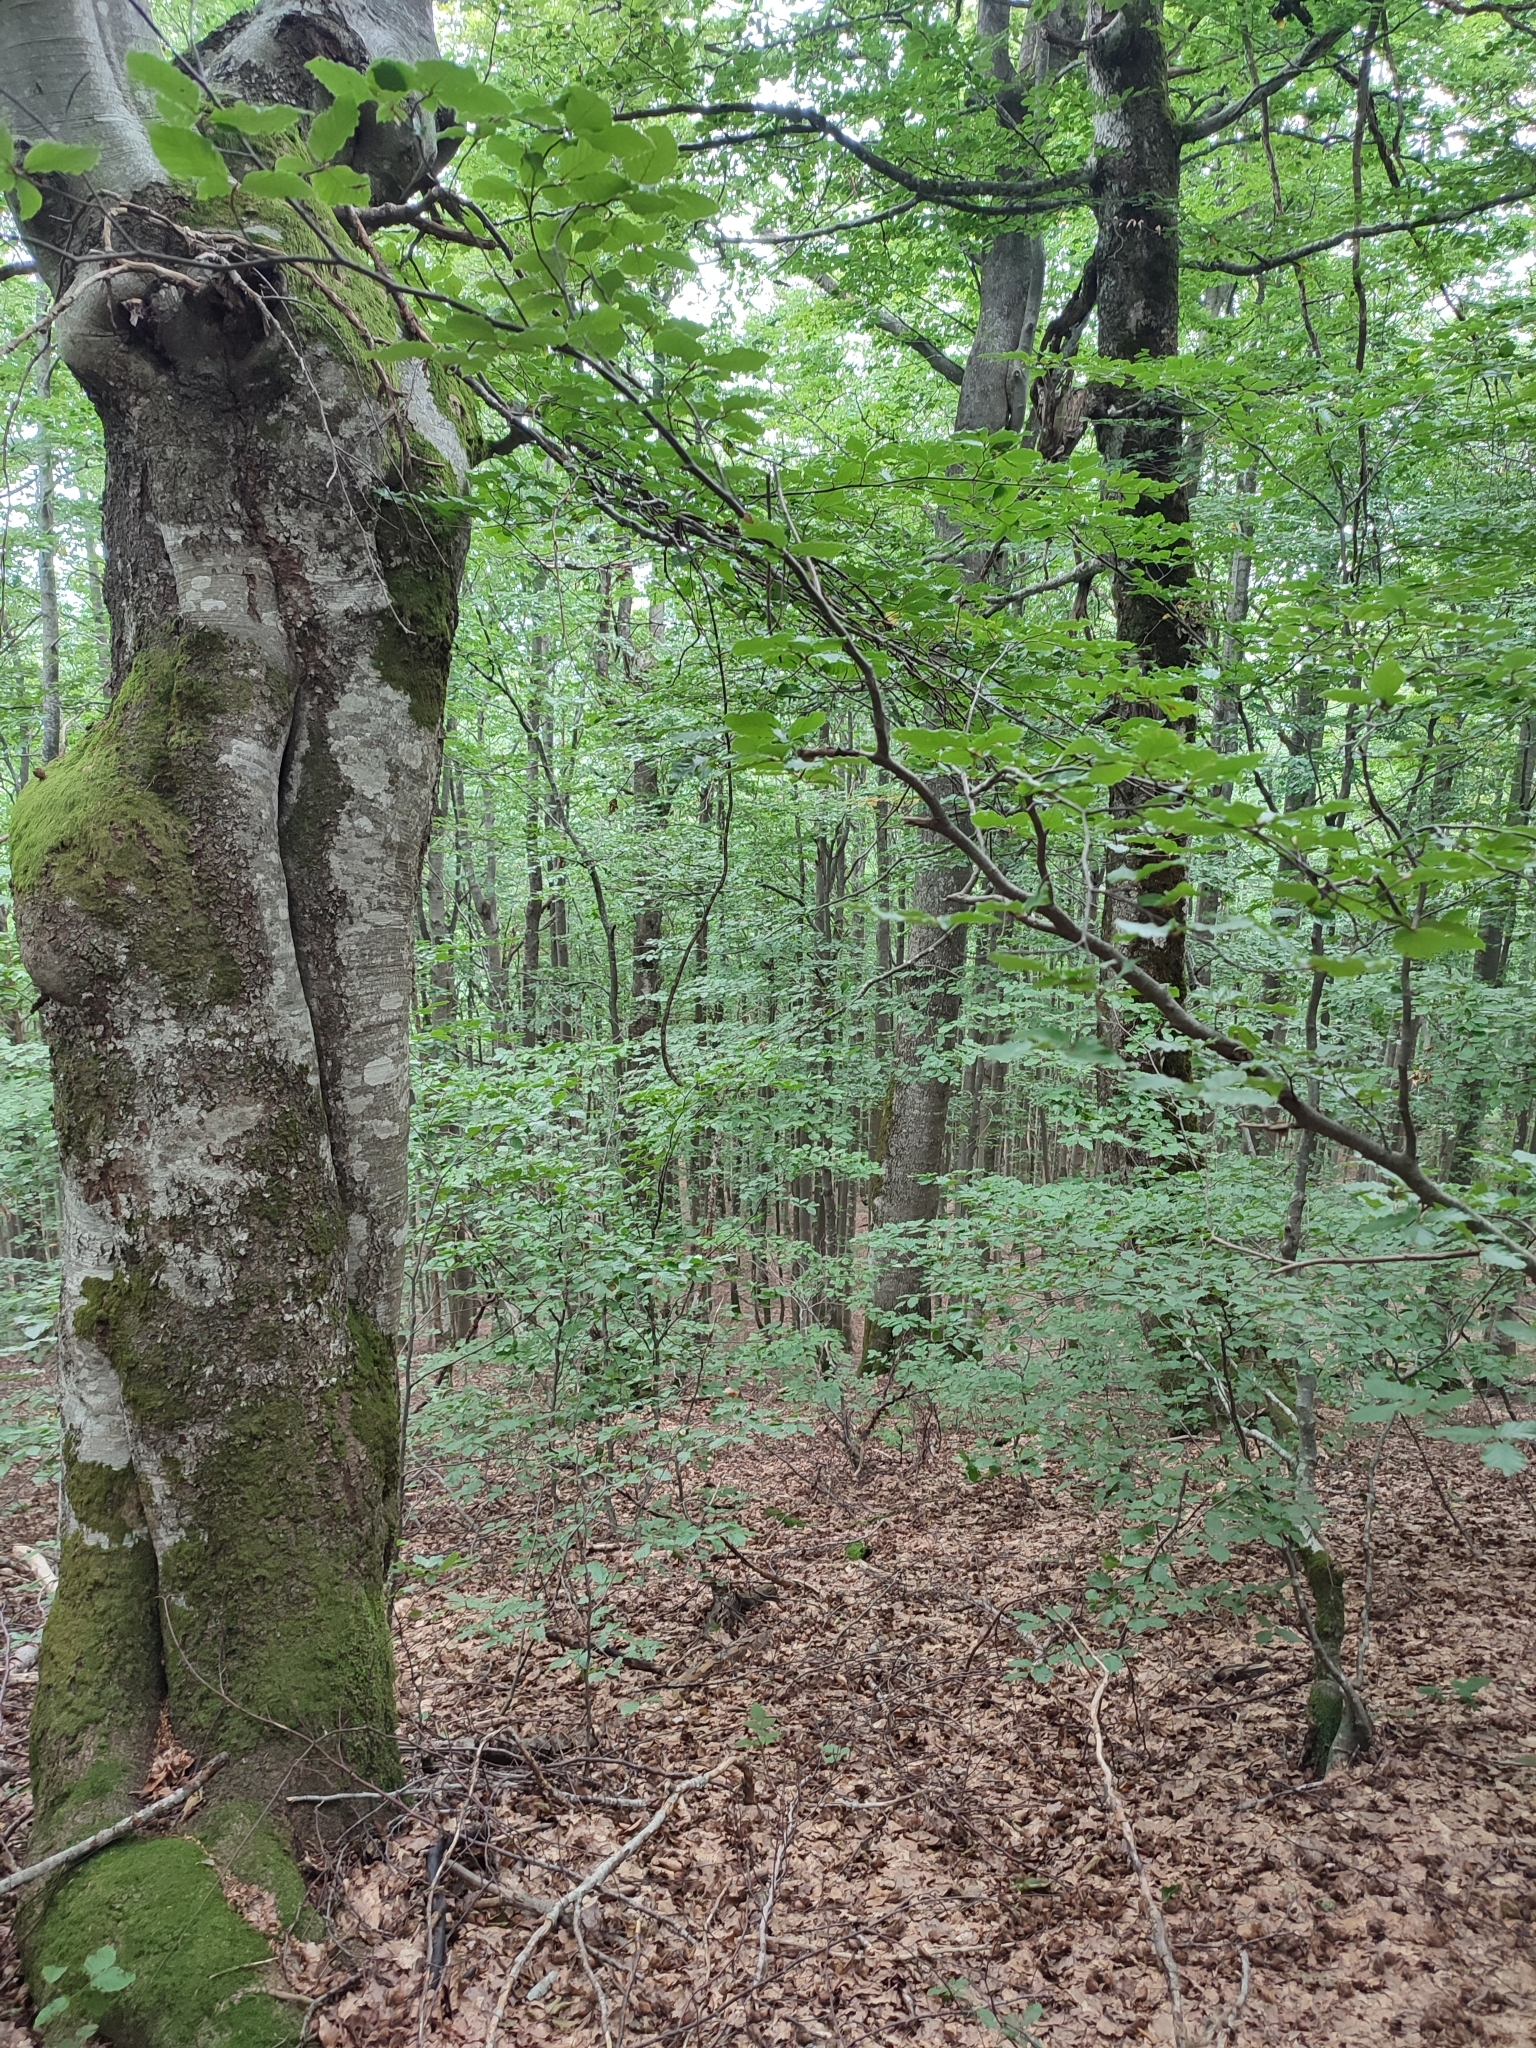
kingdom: Plantae
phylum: Tracheophyta
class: Magnoliopsida
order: Fagales
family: Fagaceae
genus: Fagus
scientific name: Fagus sylvatica
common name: Beech
